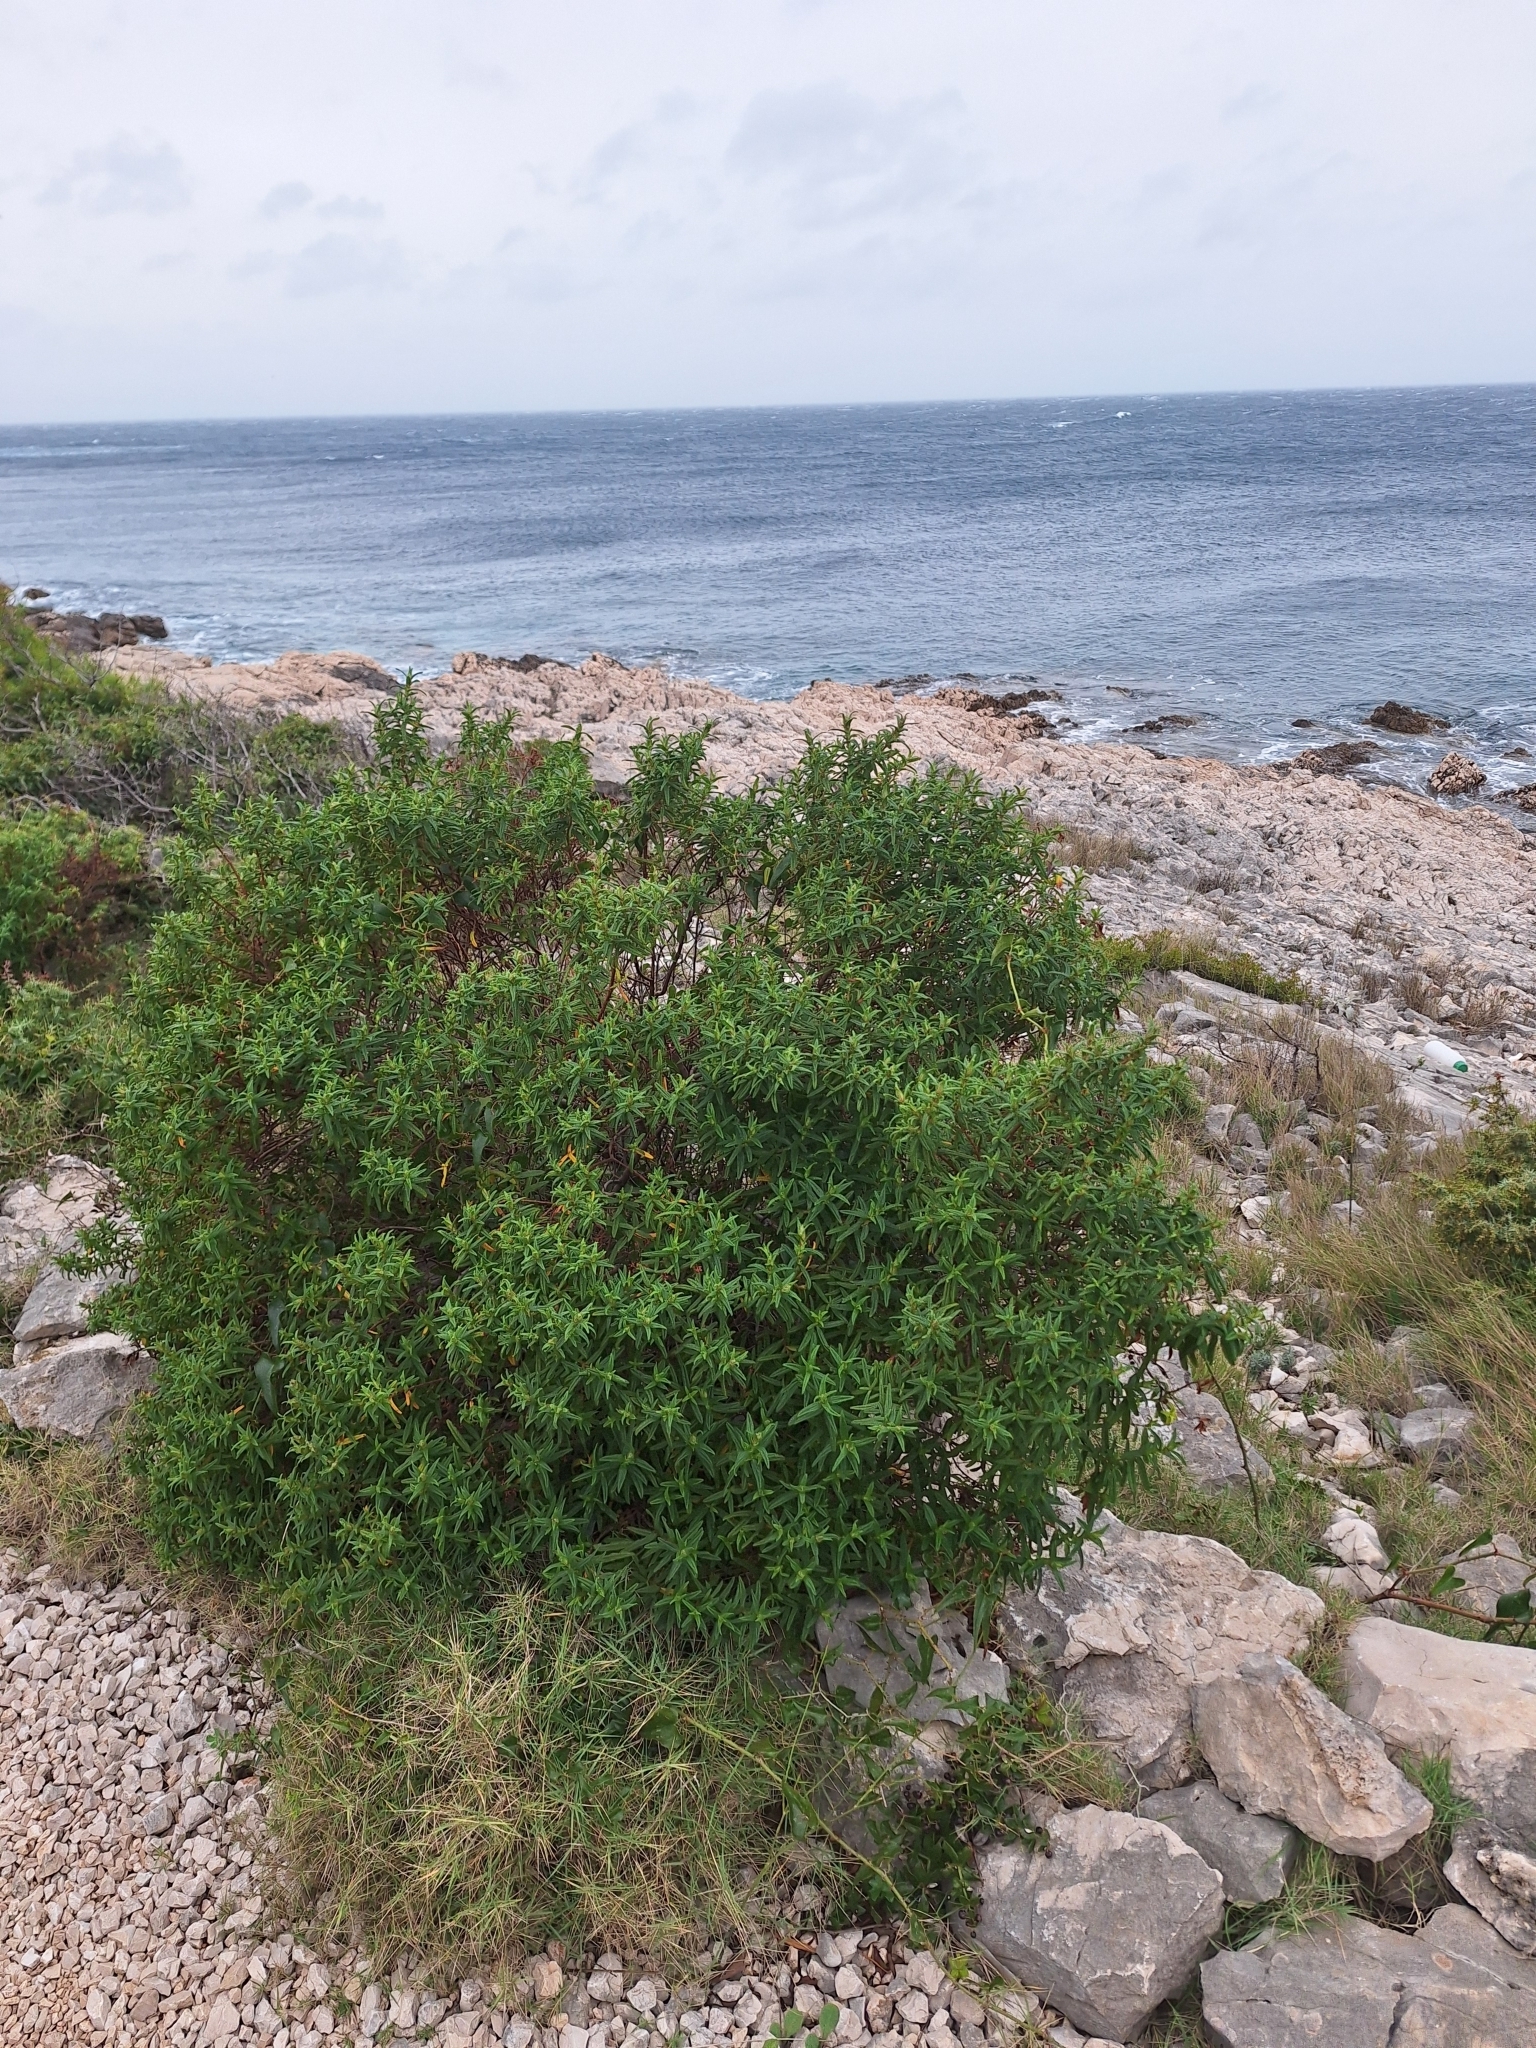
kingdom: Plantae
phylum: Tracheophyta
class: Magnoliopsida
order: Malvales
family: Cistaceae
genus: Cistus
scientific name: Cistus monspeliensis
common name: Montpelier cistus
